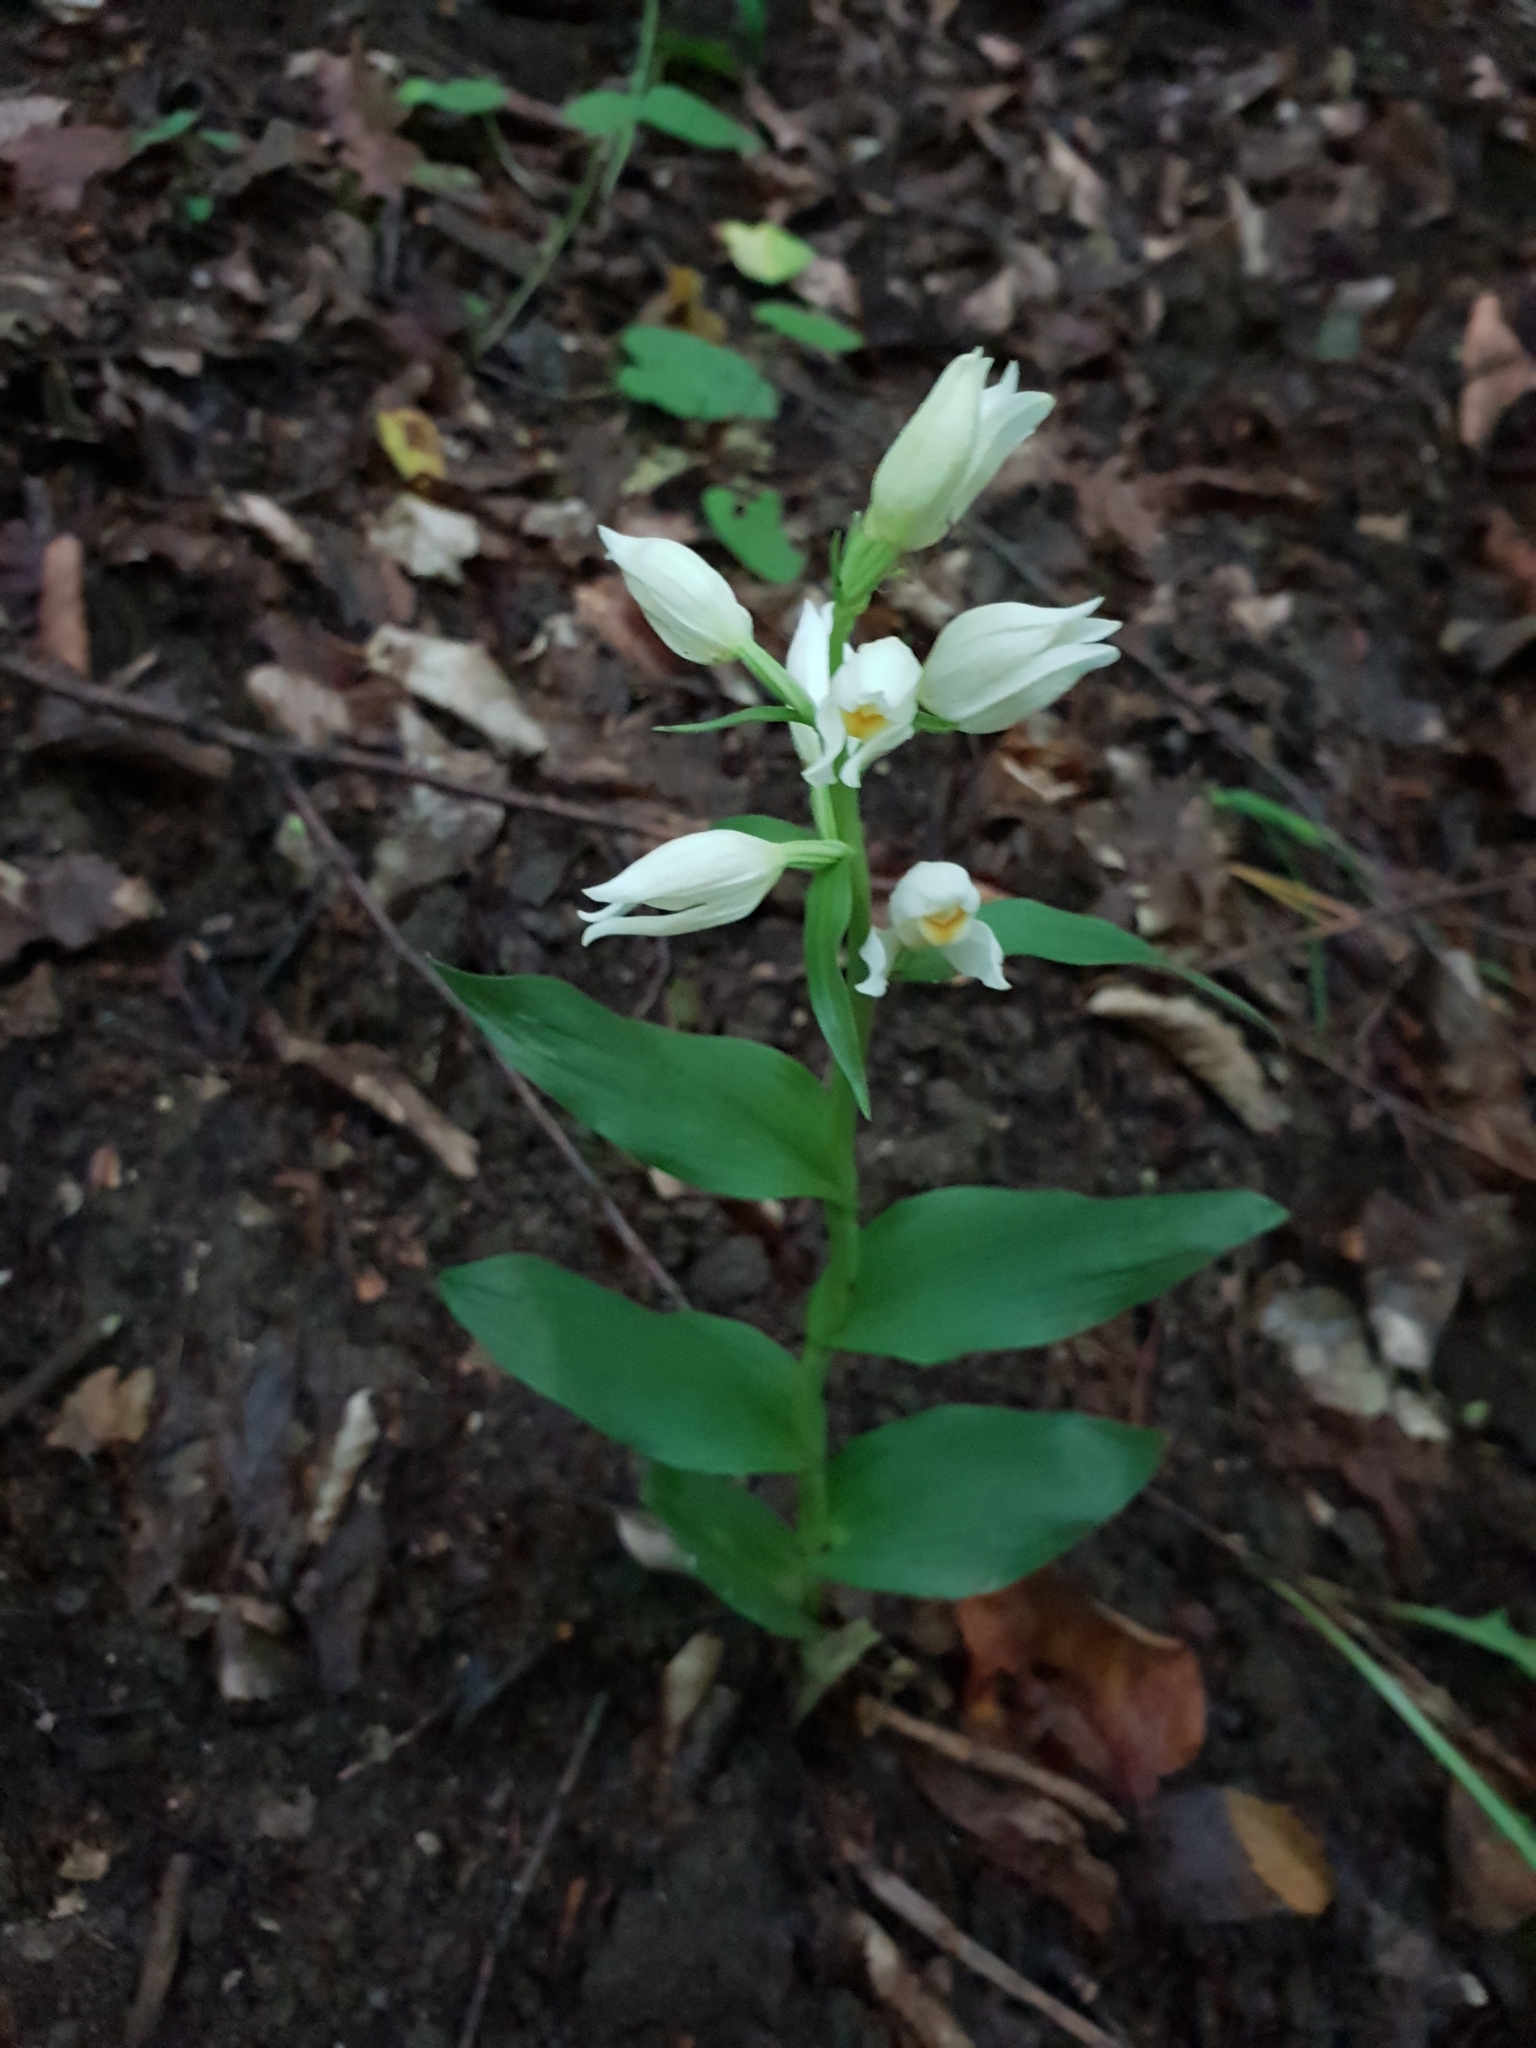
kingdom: Plantae
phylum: Tracheophyta
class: Liliopsida
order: Asparagales
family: Orchidaceae
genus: Cephalanthera
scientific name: Cephalanthera damasonium
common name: White helleborine
